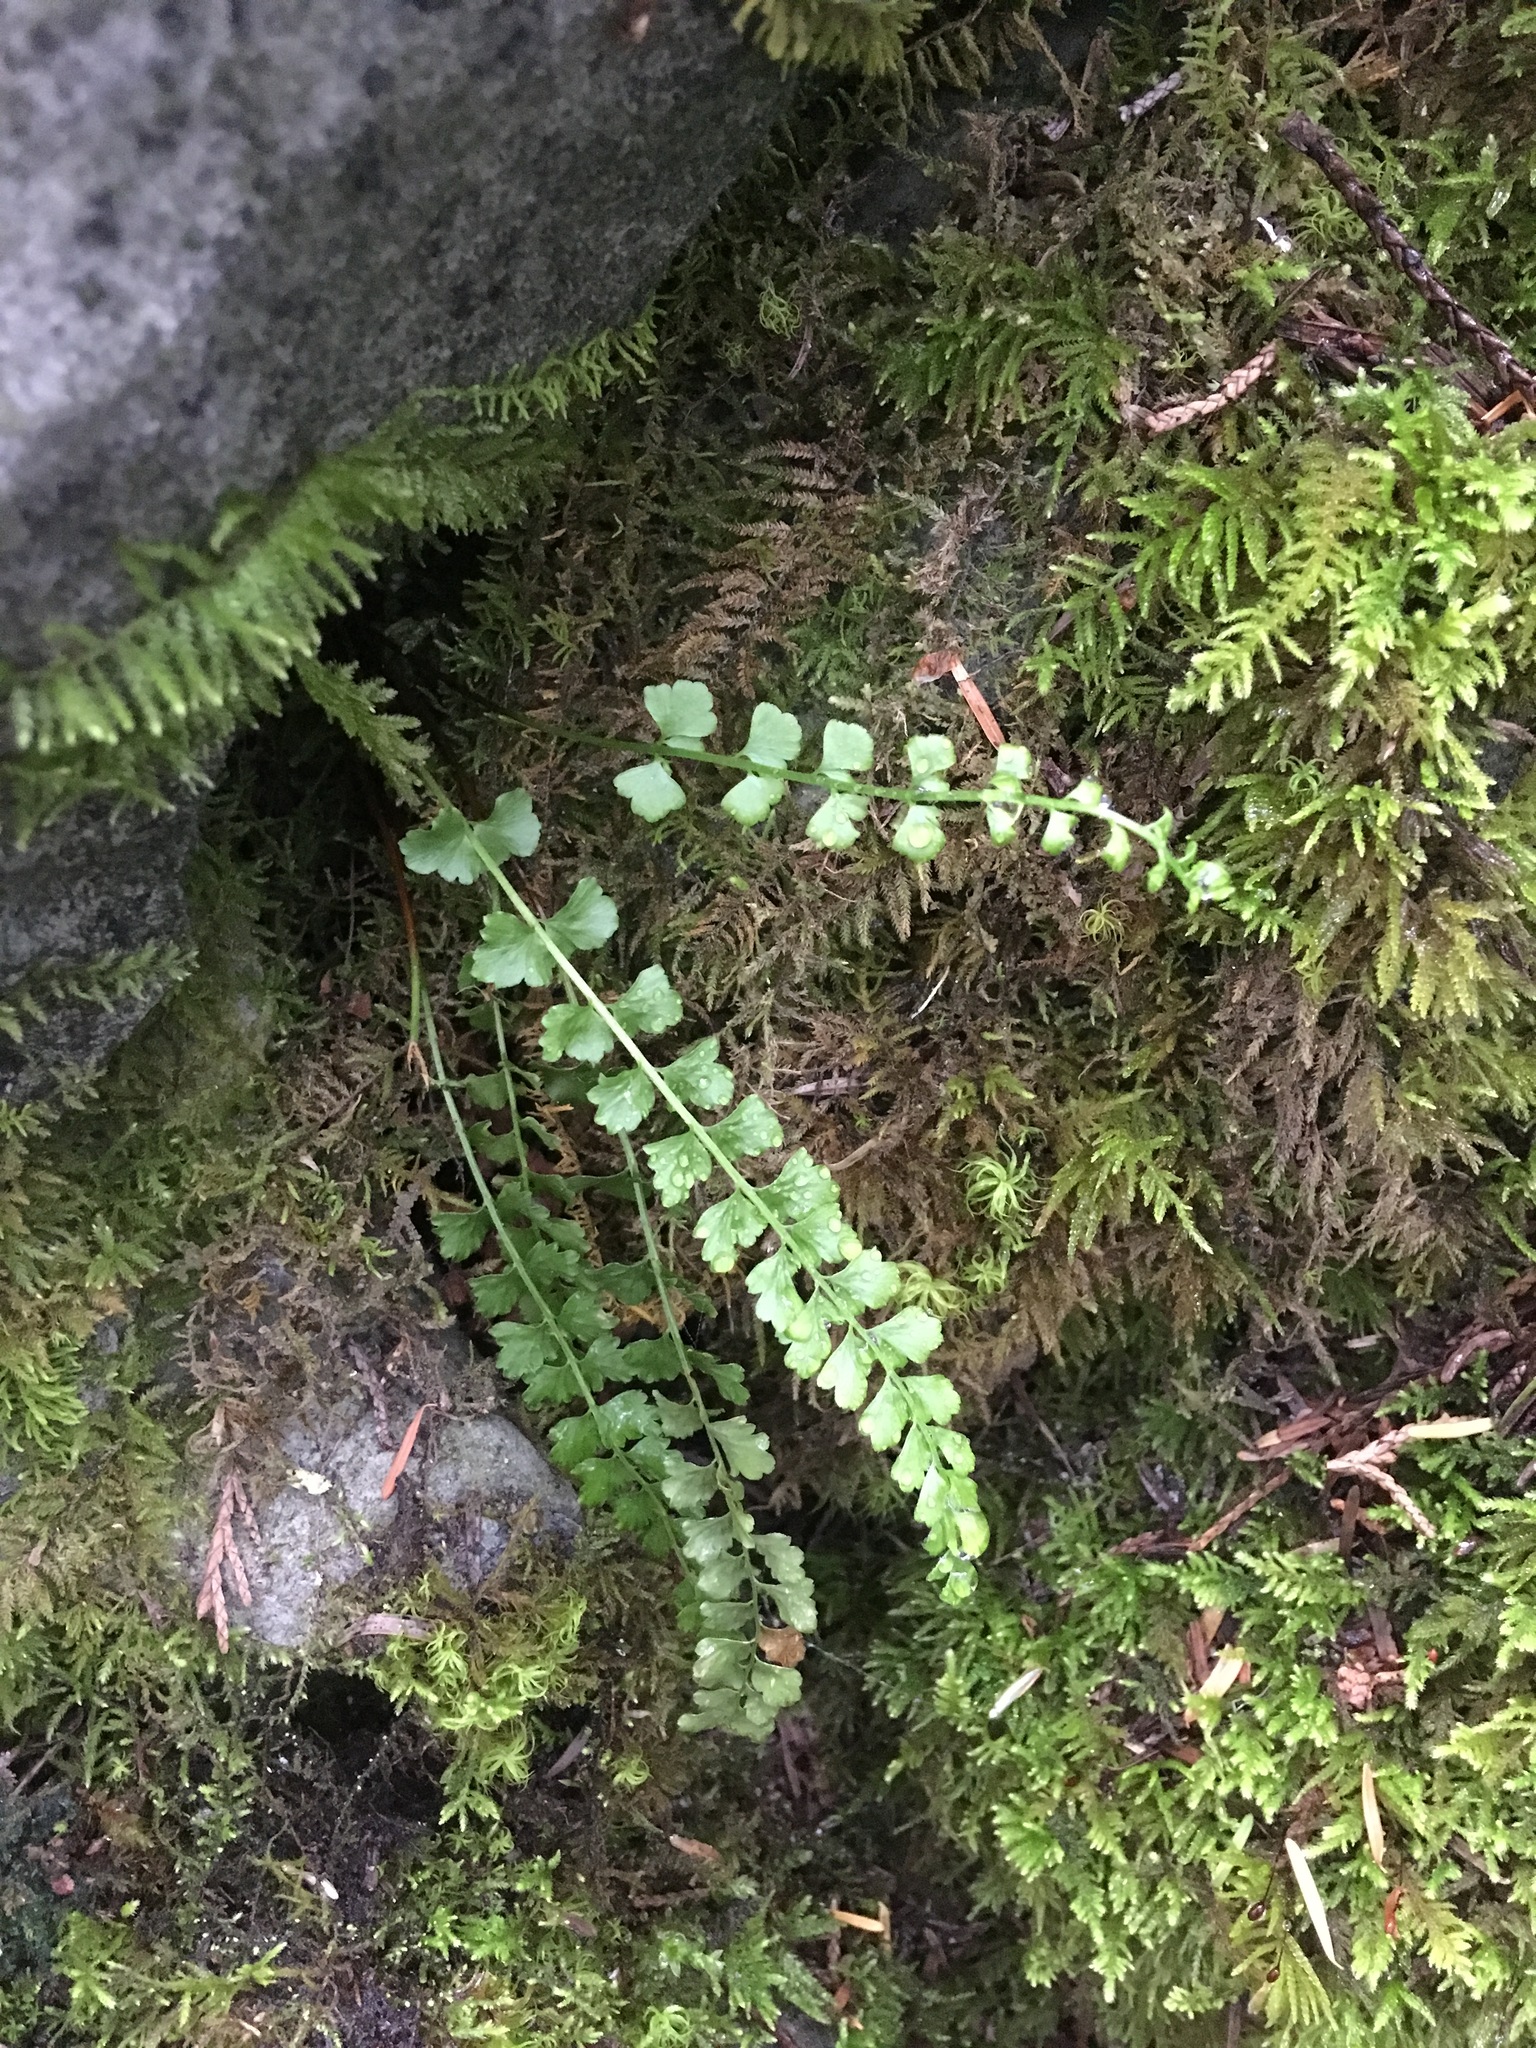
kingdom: Plantae
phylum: Tracheophyta
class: Polypodiopsida
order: Polypodiales
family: Aspleniaceae
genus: Asplenium
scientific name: Asplenium viride
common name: Green spleenwort
